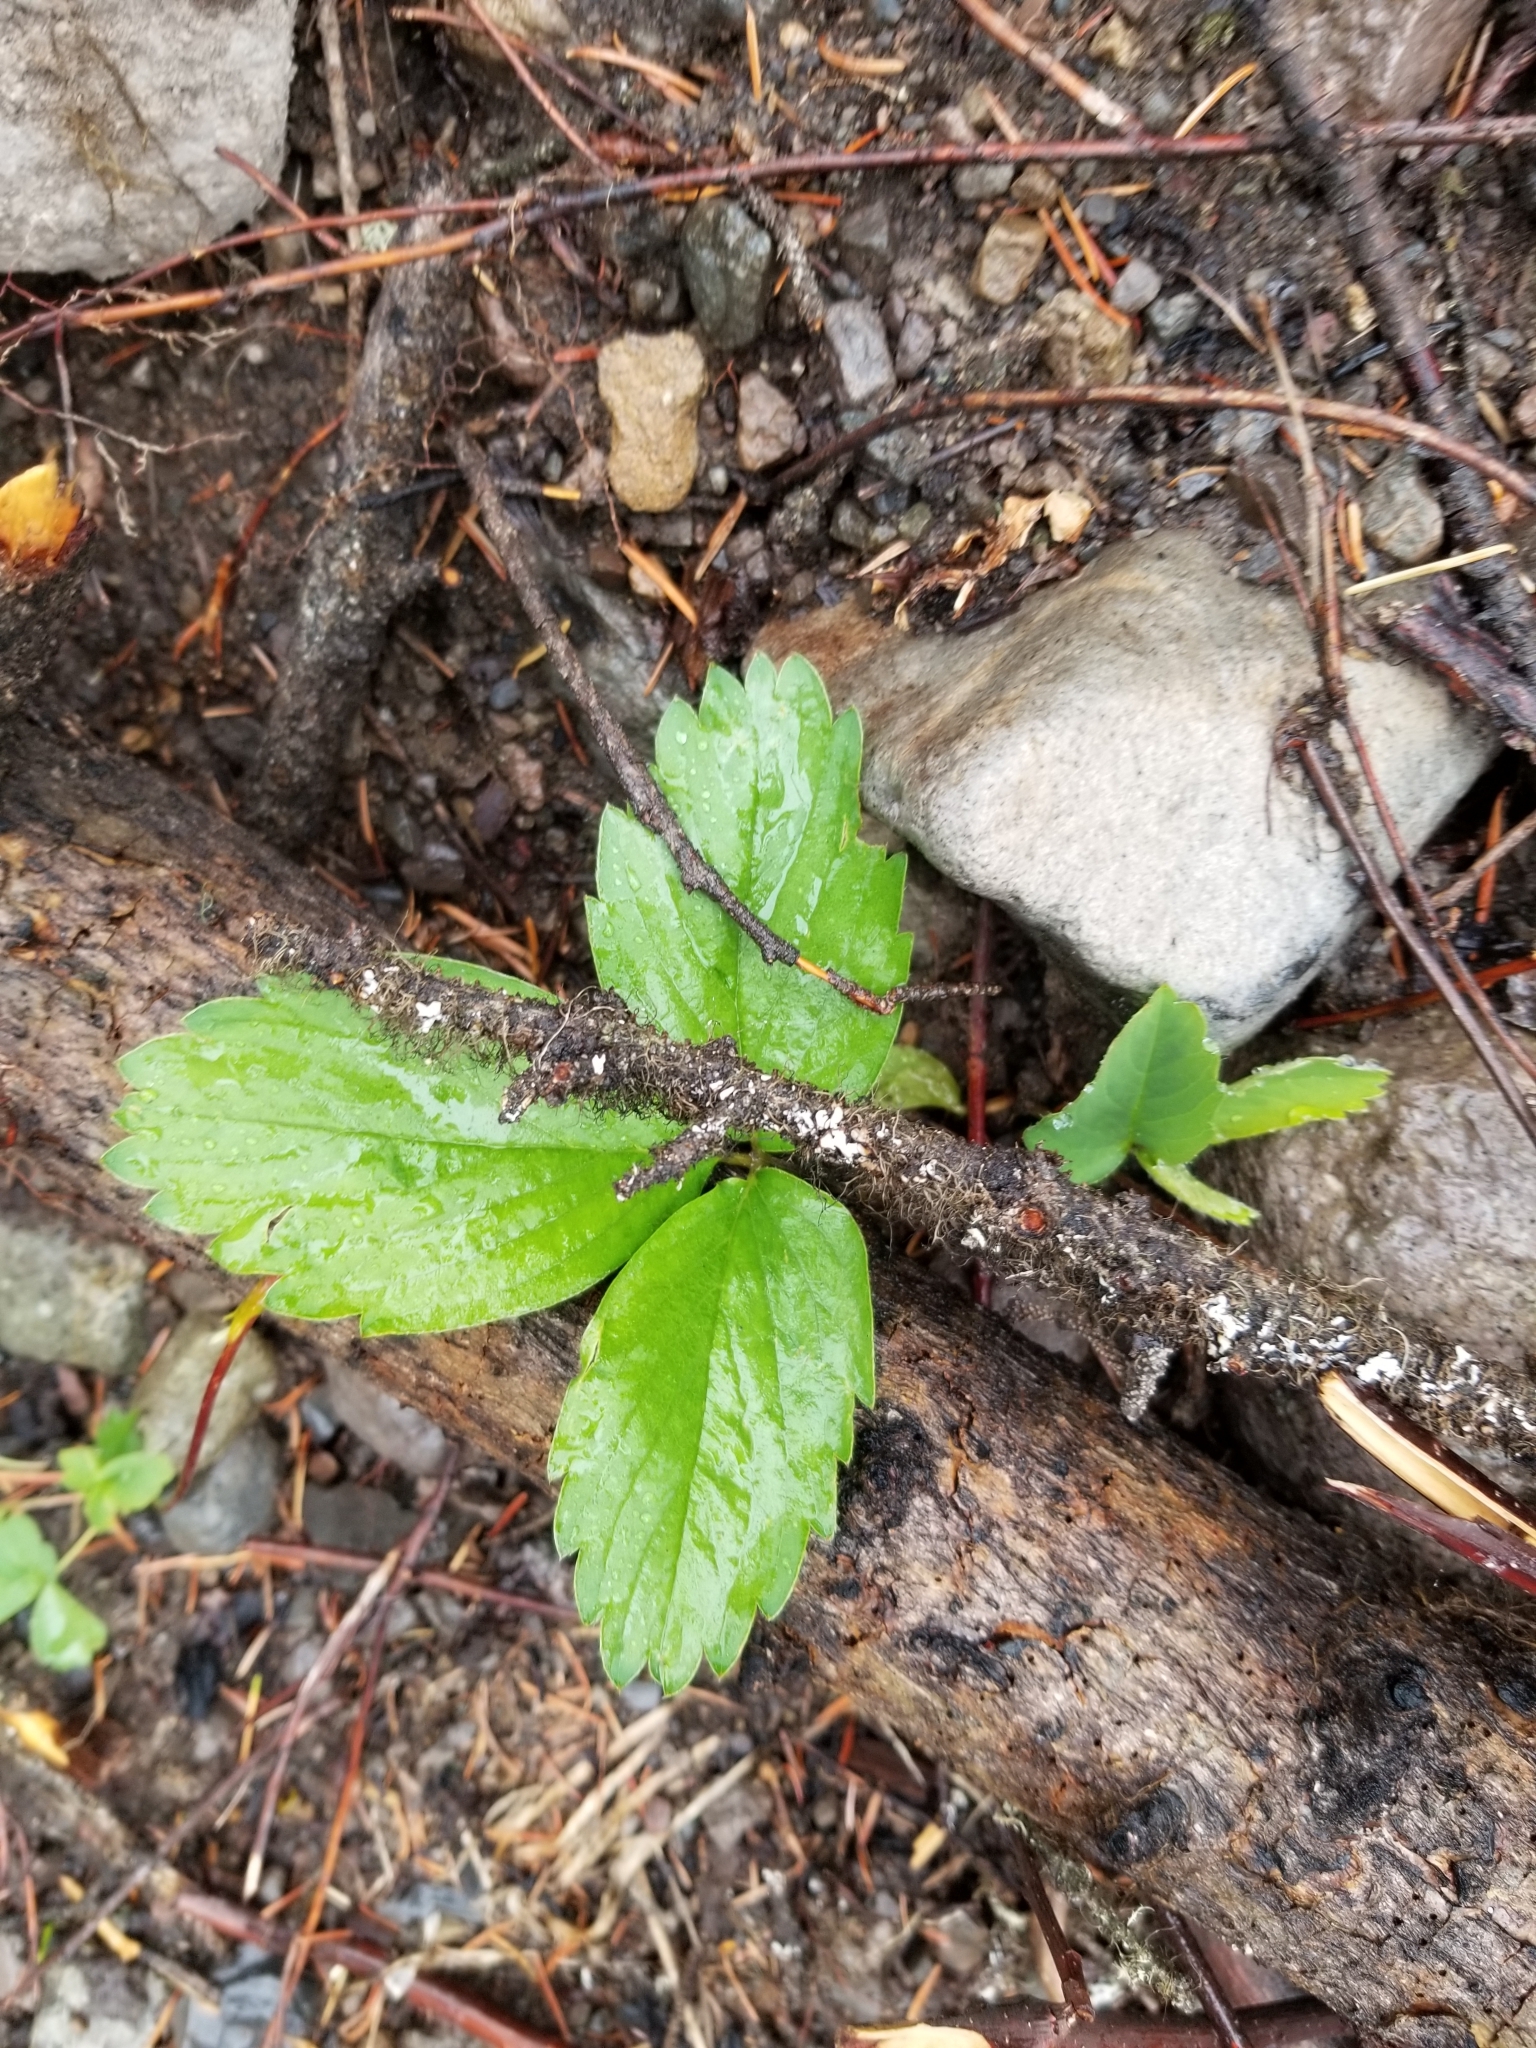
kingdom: Plantae
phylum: Tracheophyta
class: Magnoliopsida
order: Rosales
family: Rosaceae
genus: Fragaria
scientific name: Fragaria virginiana
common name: Thickleaved wild strawberry
